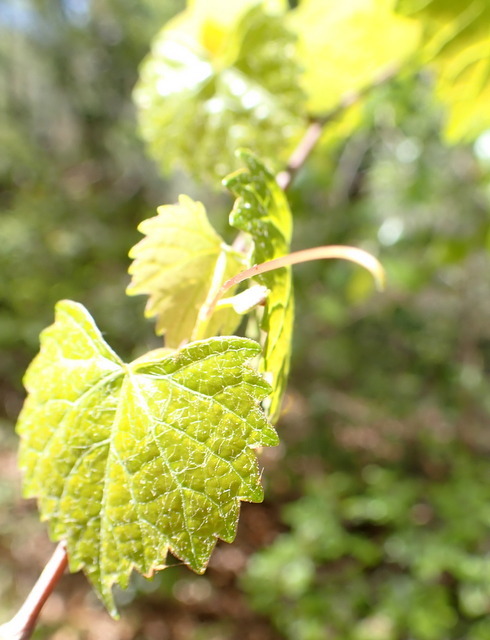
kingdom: Plantae
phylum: Tracheophyta
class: Magnoliopsida
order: Vitales
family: Vitaceae
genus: Vitis
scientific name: Vitis rotundifolia
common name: Muscadine grape
